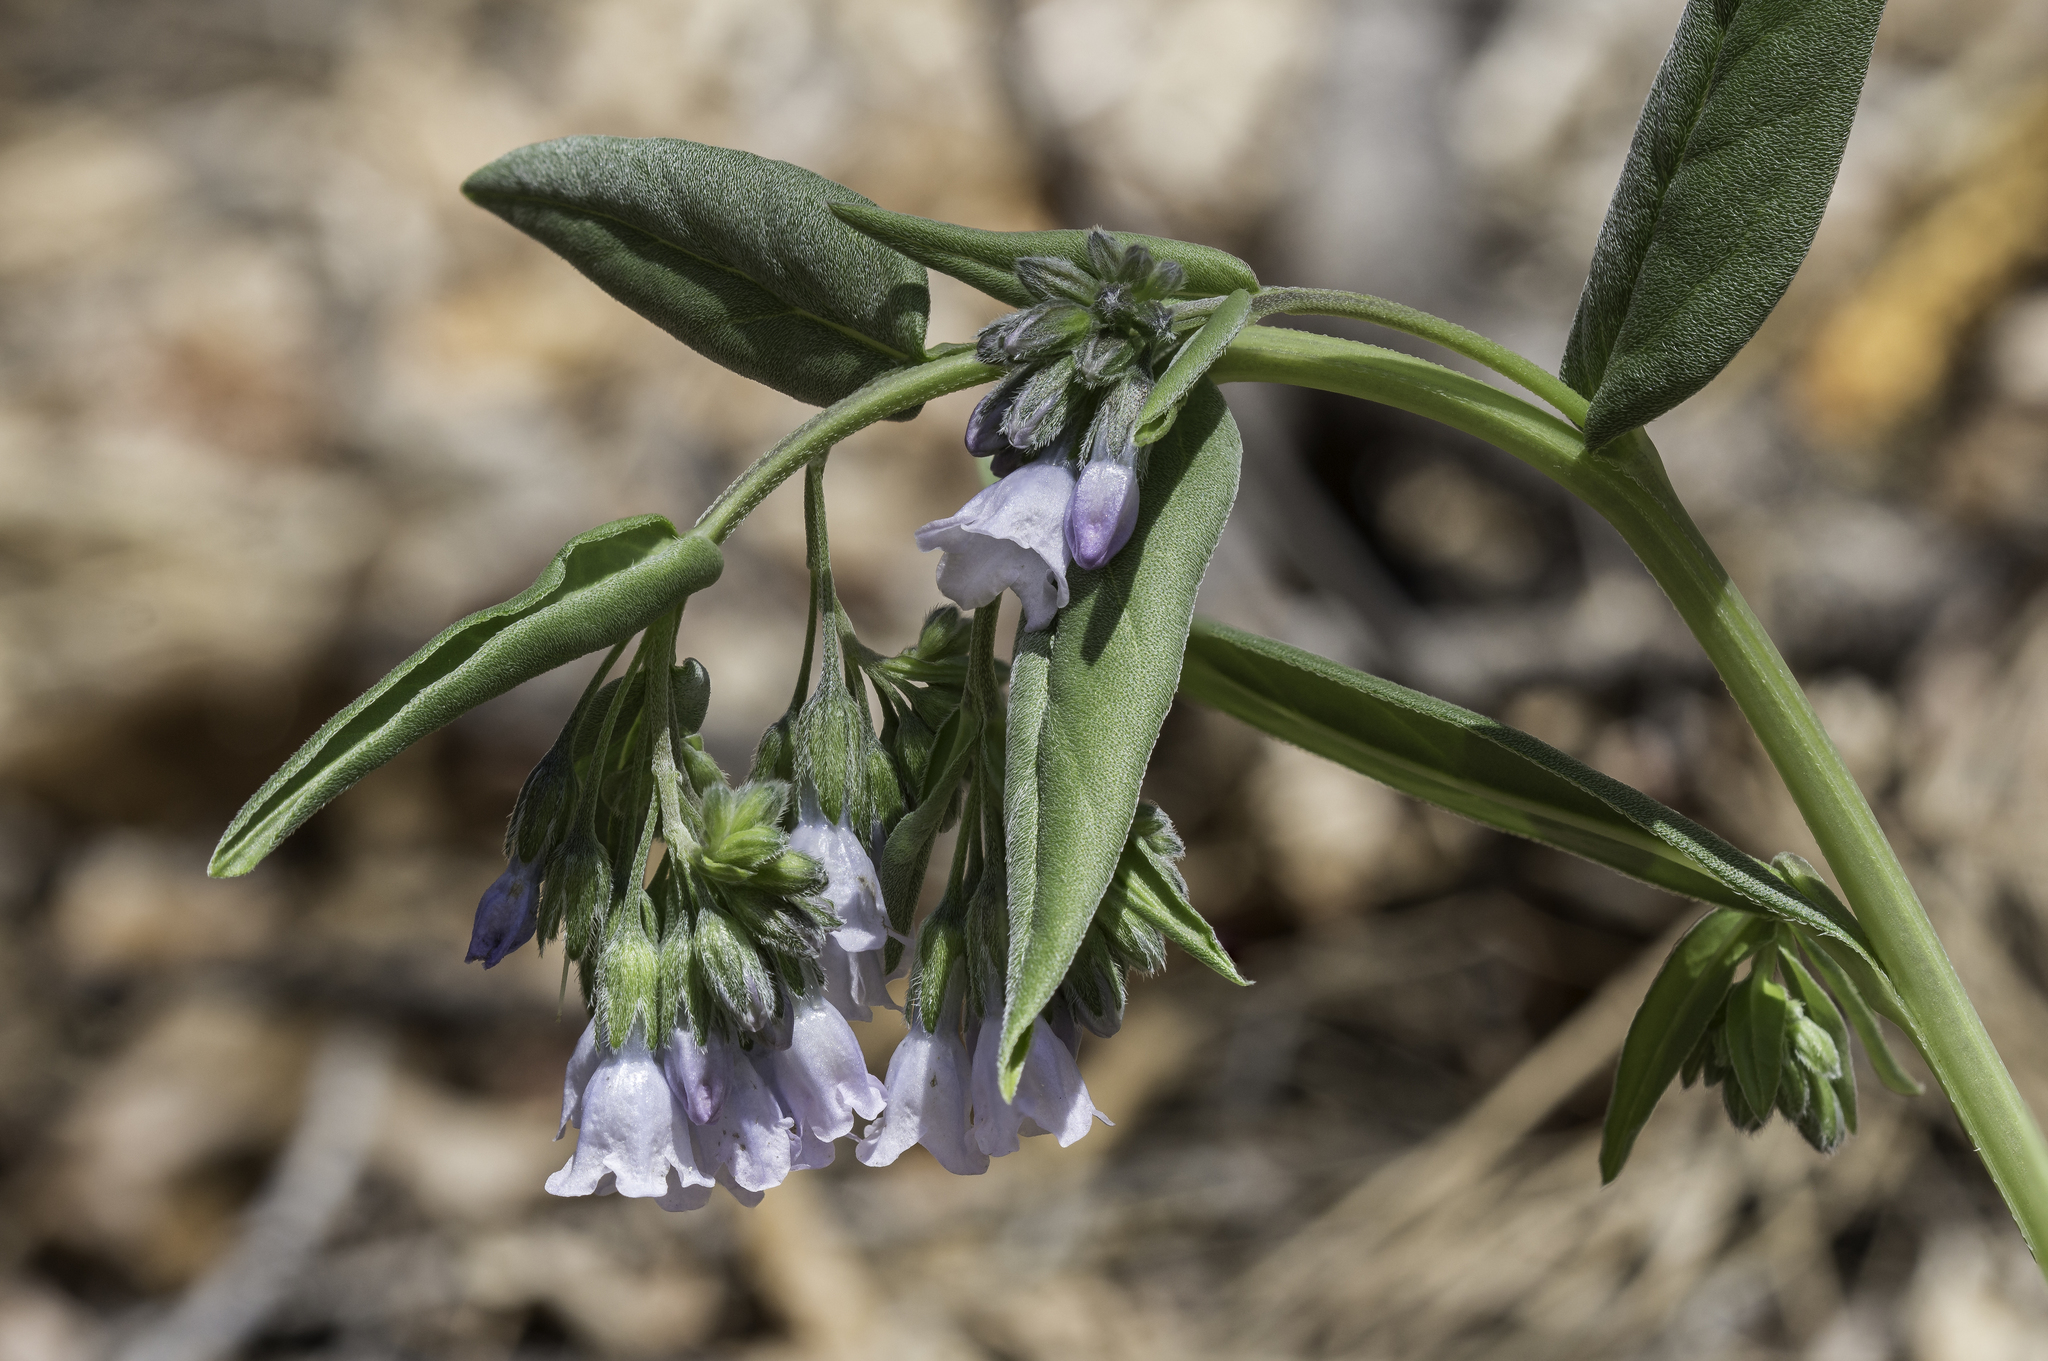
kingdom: Plantae
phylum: Tracheophyta
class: Magnoliopsida
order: Boraginales
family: Boraginaceae
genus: Mertensia
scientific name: Mertensia fendleri
